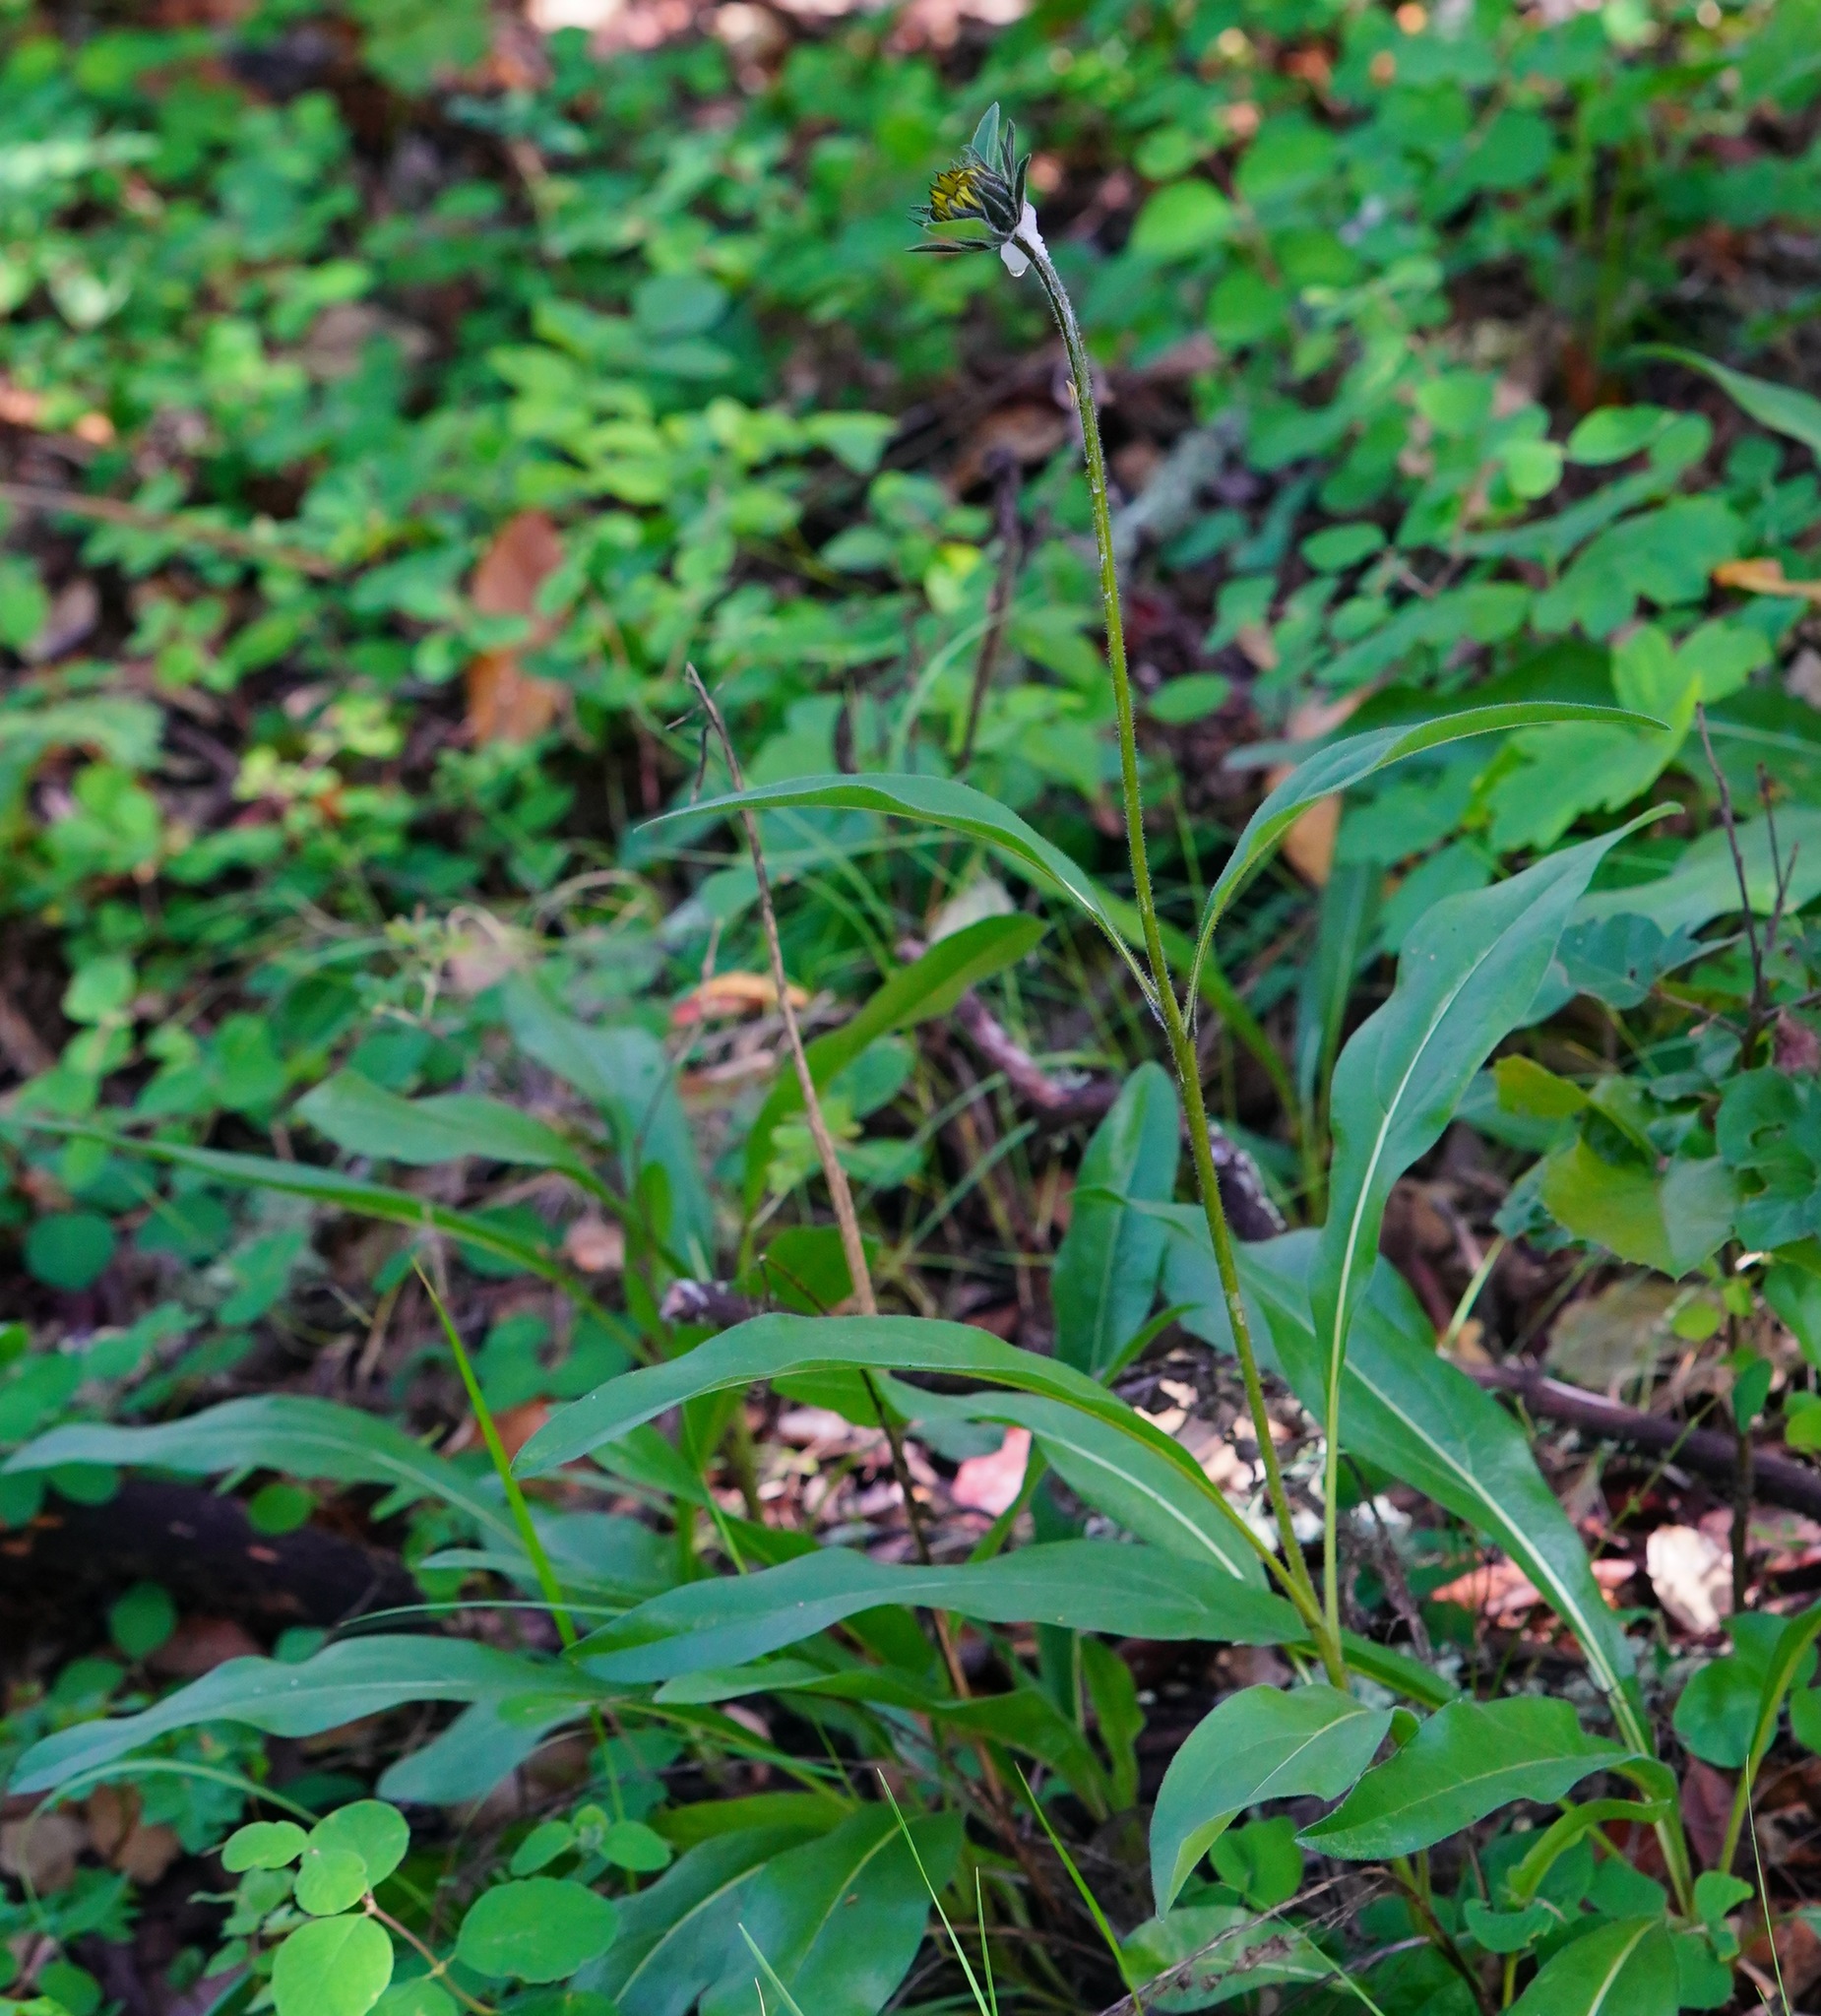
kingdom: Plantae
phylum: Tracheophyta
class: Magnoliopsida
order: Asterales
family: Asteraceae
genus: Helianthella
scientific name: Helianthella castanea
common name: Diablo helianthella
